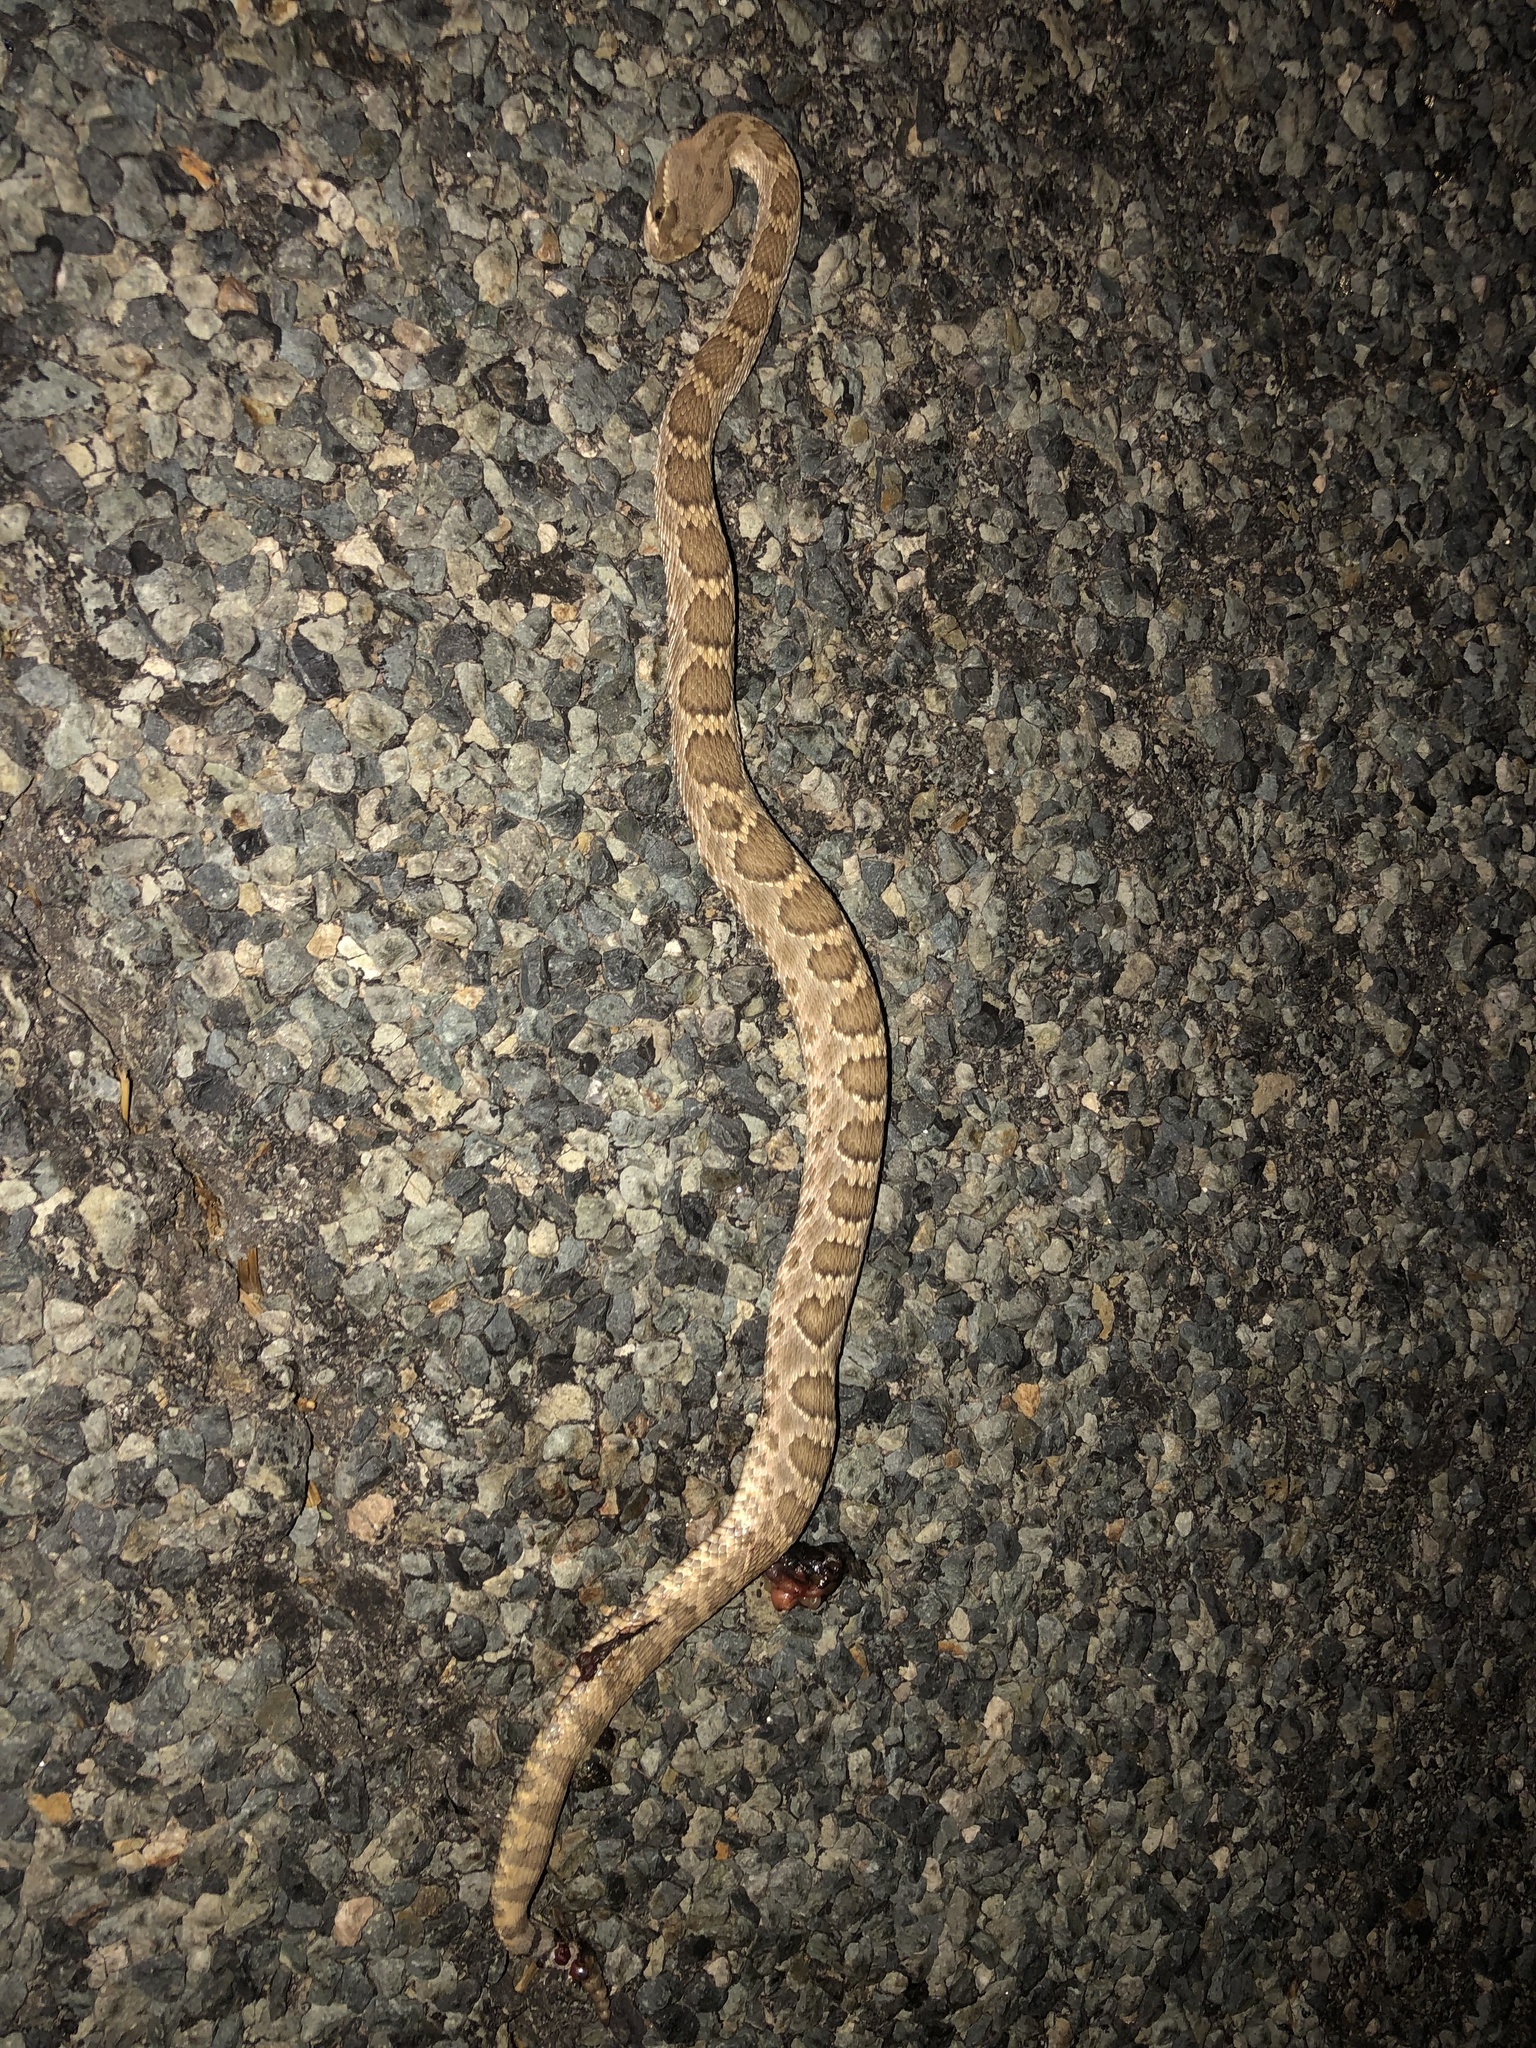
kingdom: Animalia
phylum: Chordata
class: Squamata
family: Viperidae
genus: Crotalus
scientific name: Crotalus scutulatus
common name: Scutulatus
